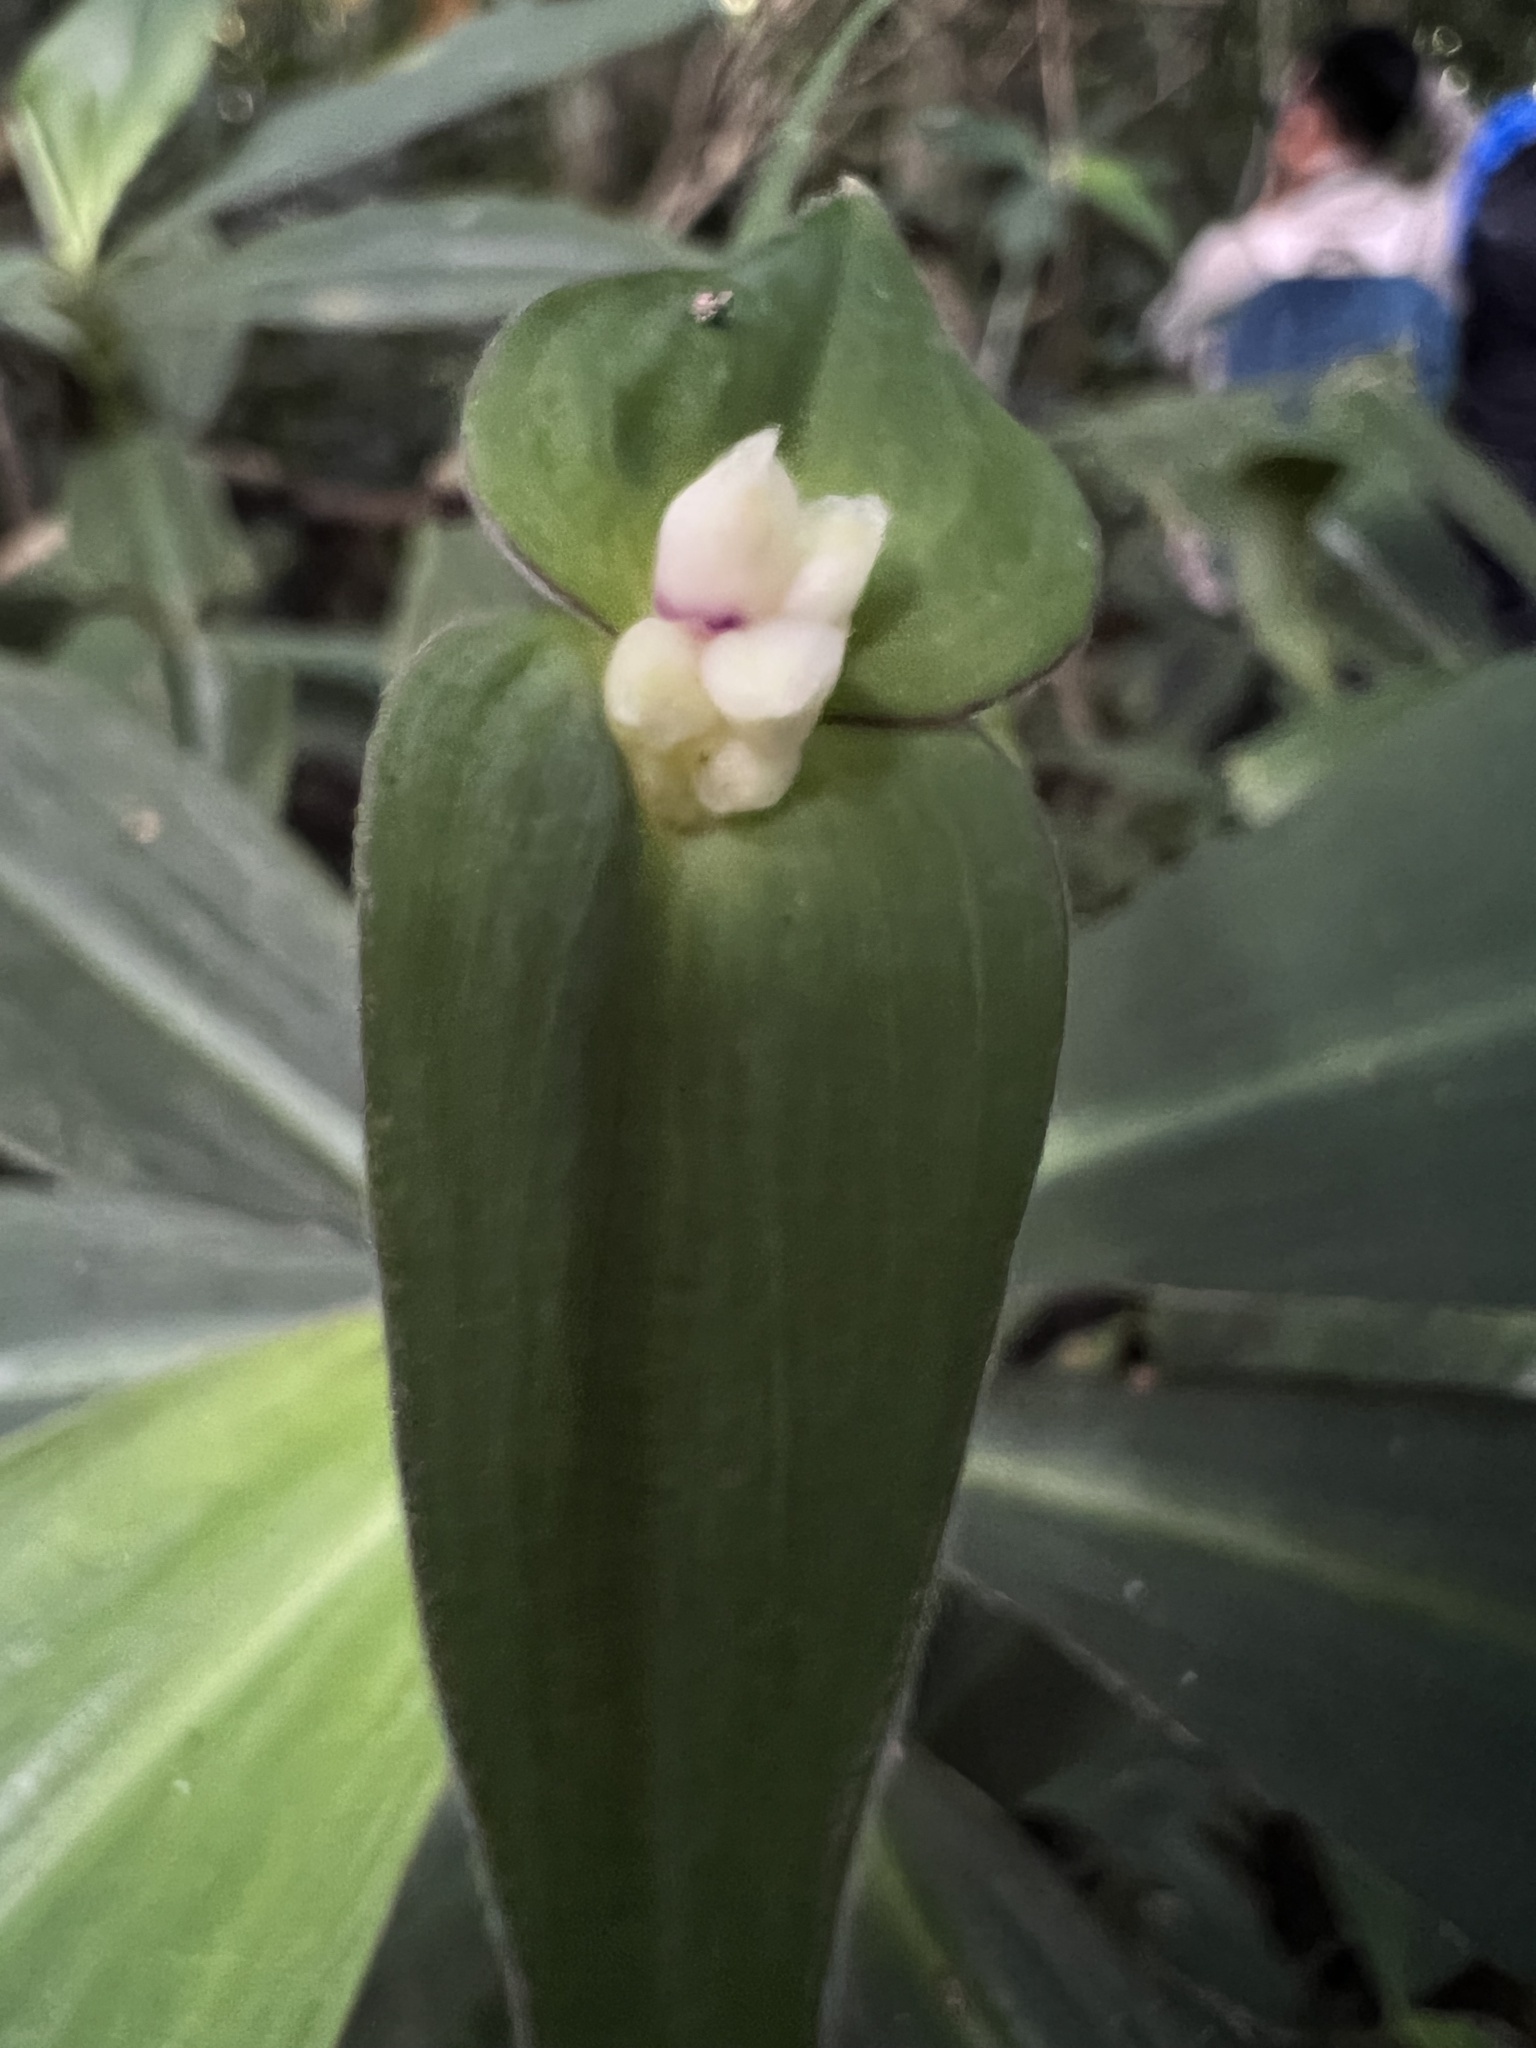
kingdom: Plantae
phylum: Tracheophyta
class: Liliopsida
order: Commelinales
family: Commelinaceae
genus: Tradescantia
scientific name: Tradescantia zanonia
